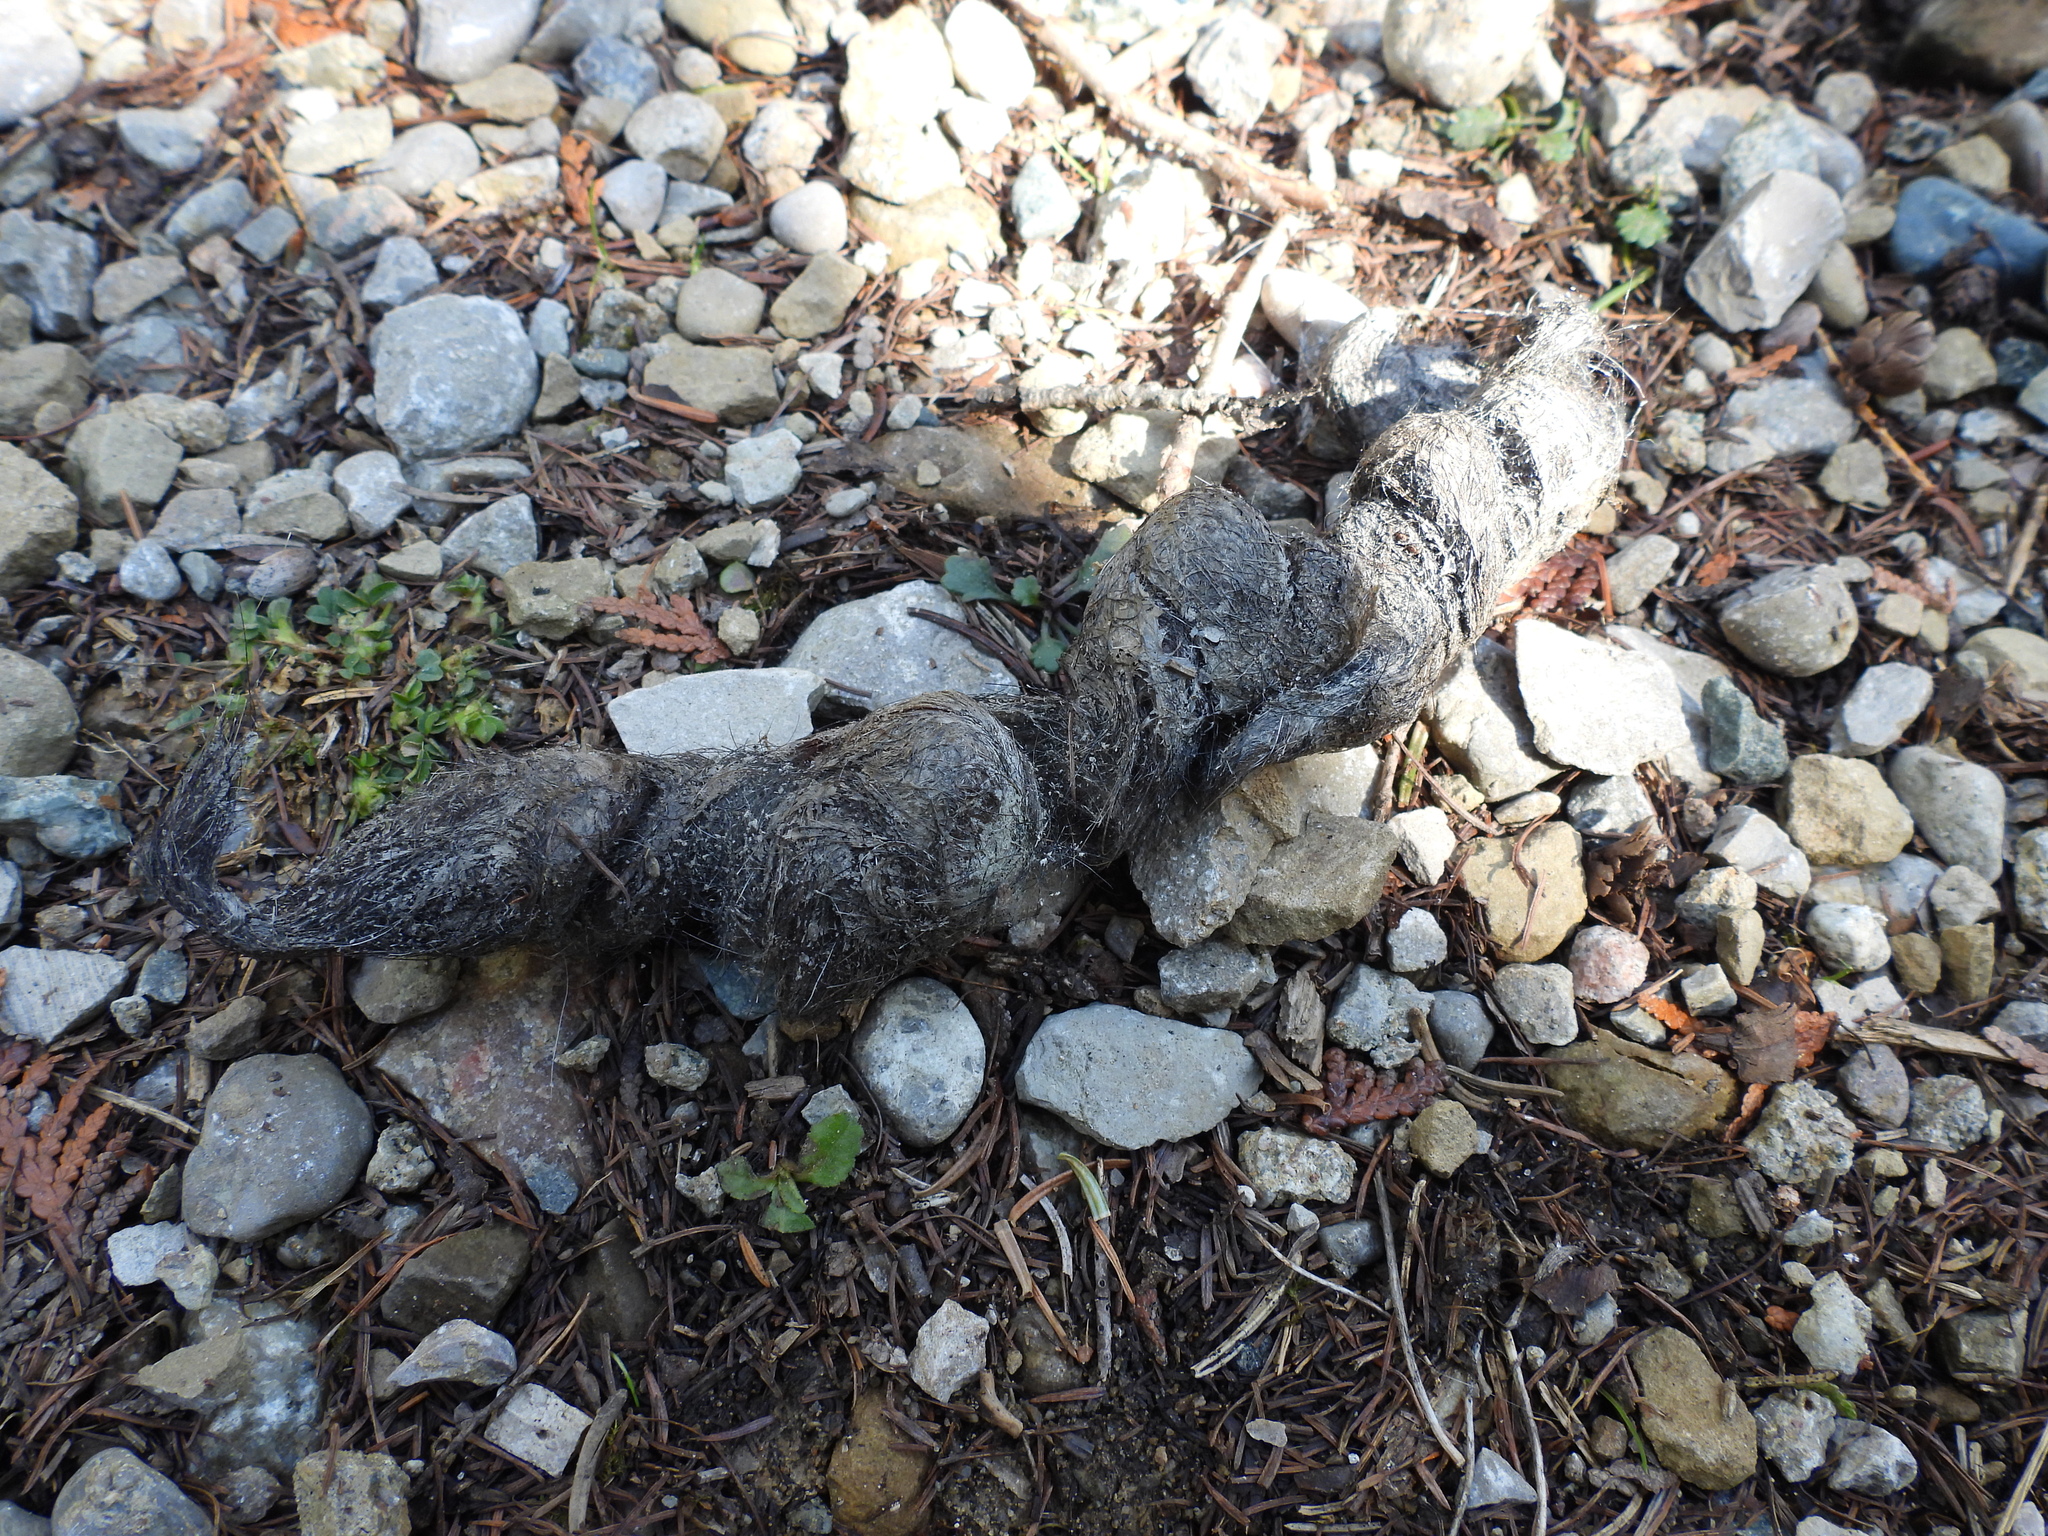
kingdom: Animalia
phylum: Chordata
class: Mammalia
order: Carnivora
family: Canidae
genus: Canis
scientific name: Canis latrans
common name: Coyote
